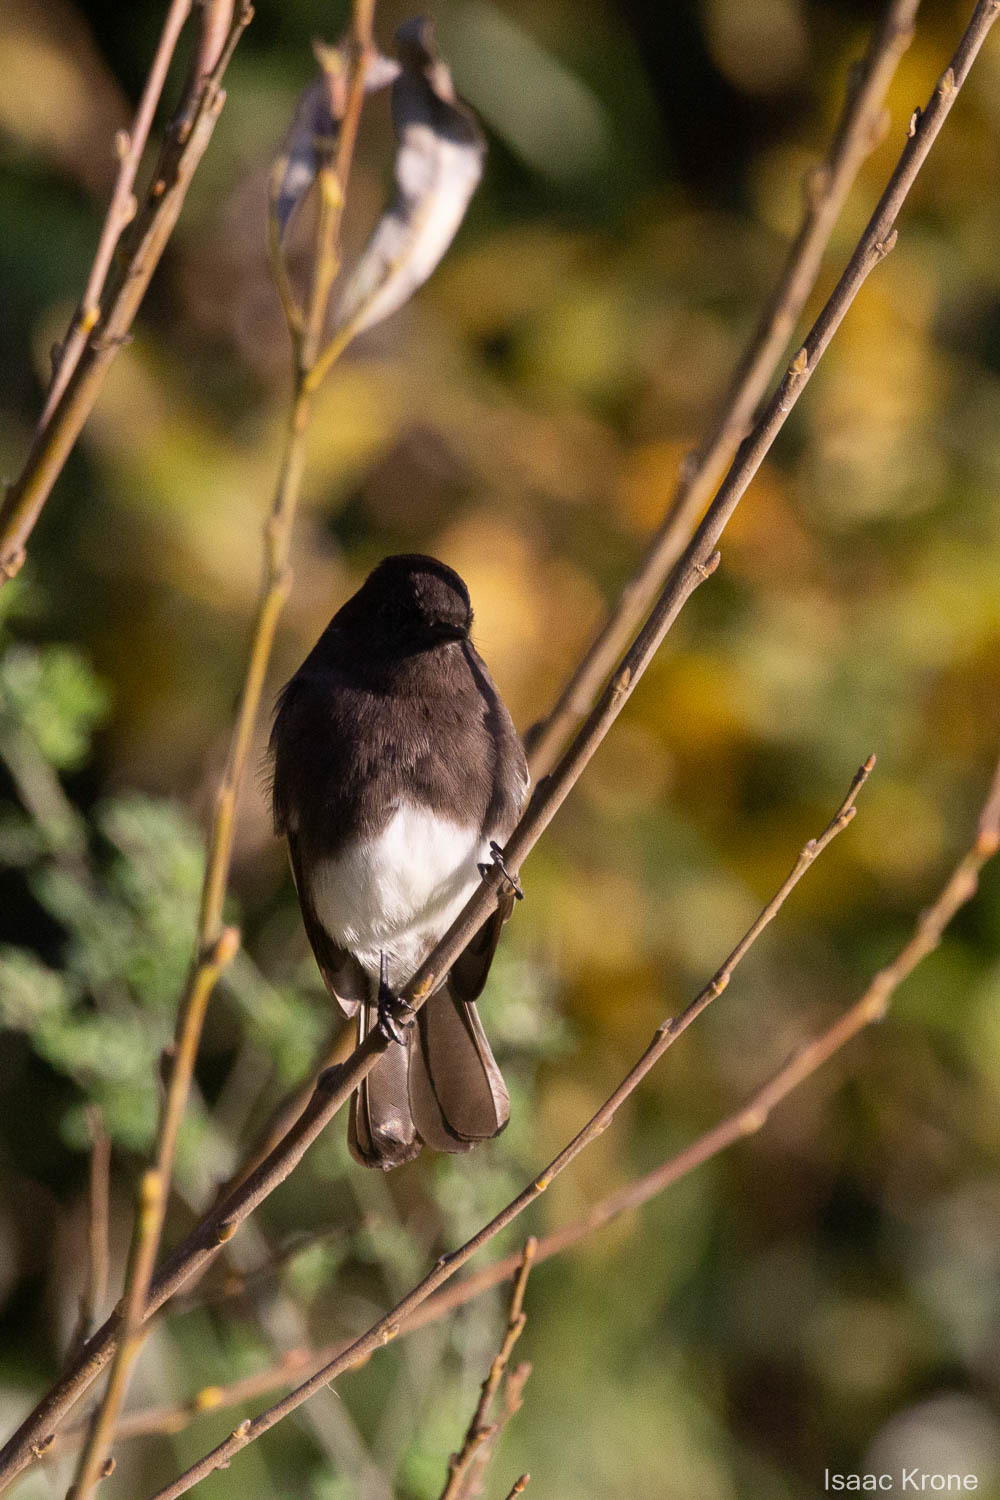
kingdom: Animalia
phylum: Chordata
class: Aves
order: Passeriformes
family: Tyrannidae
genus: Sayornis
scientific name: Sayornis nigricans
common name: Black phoebe
